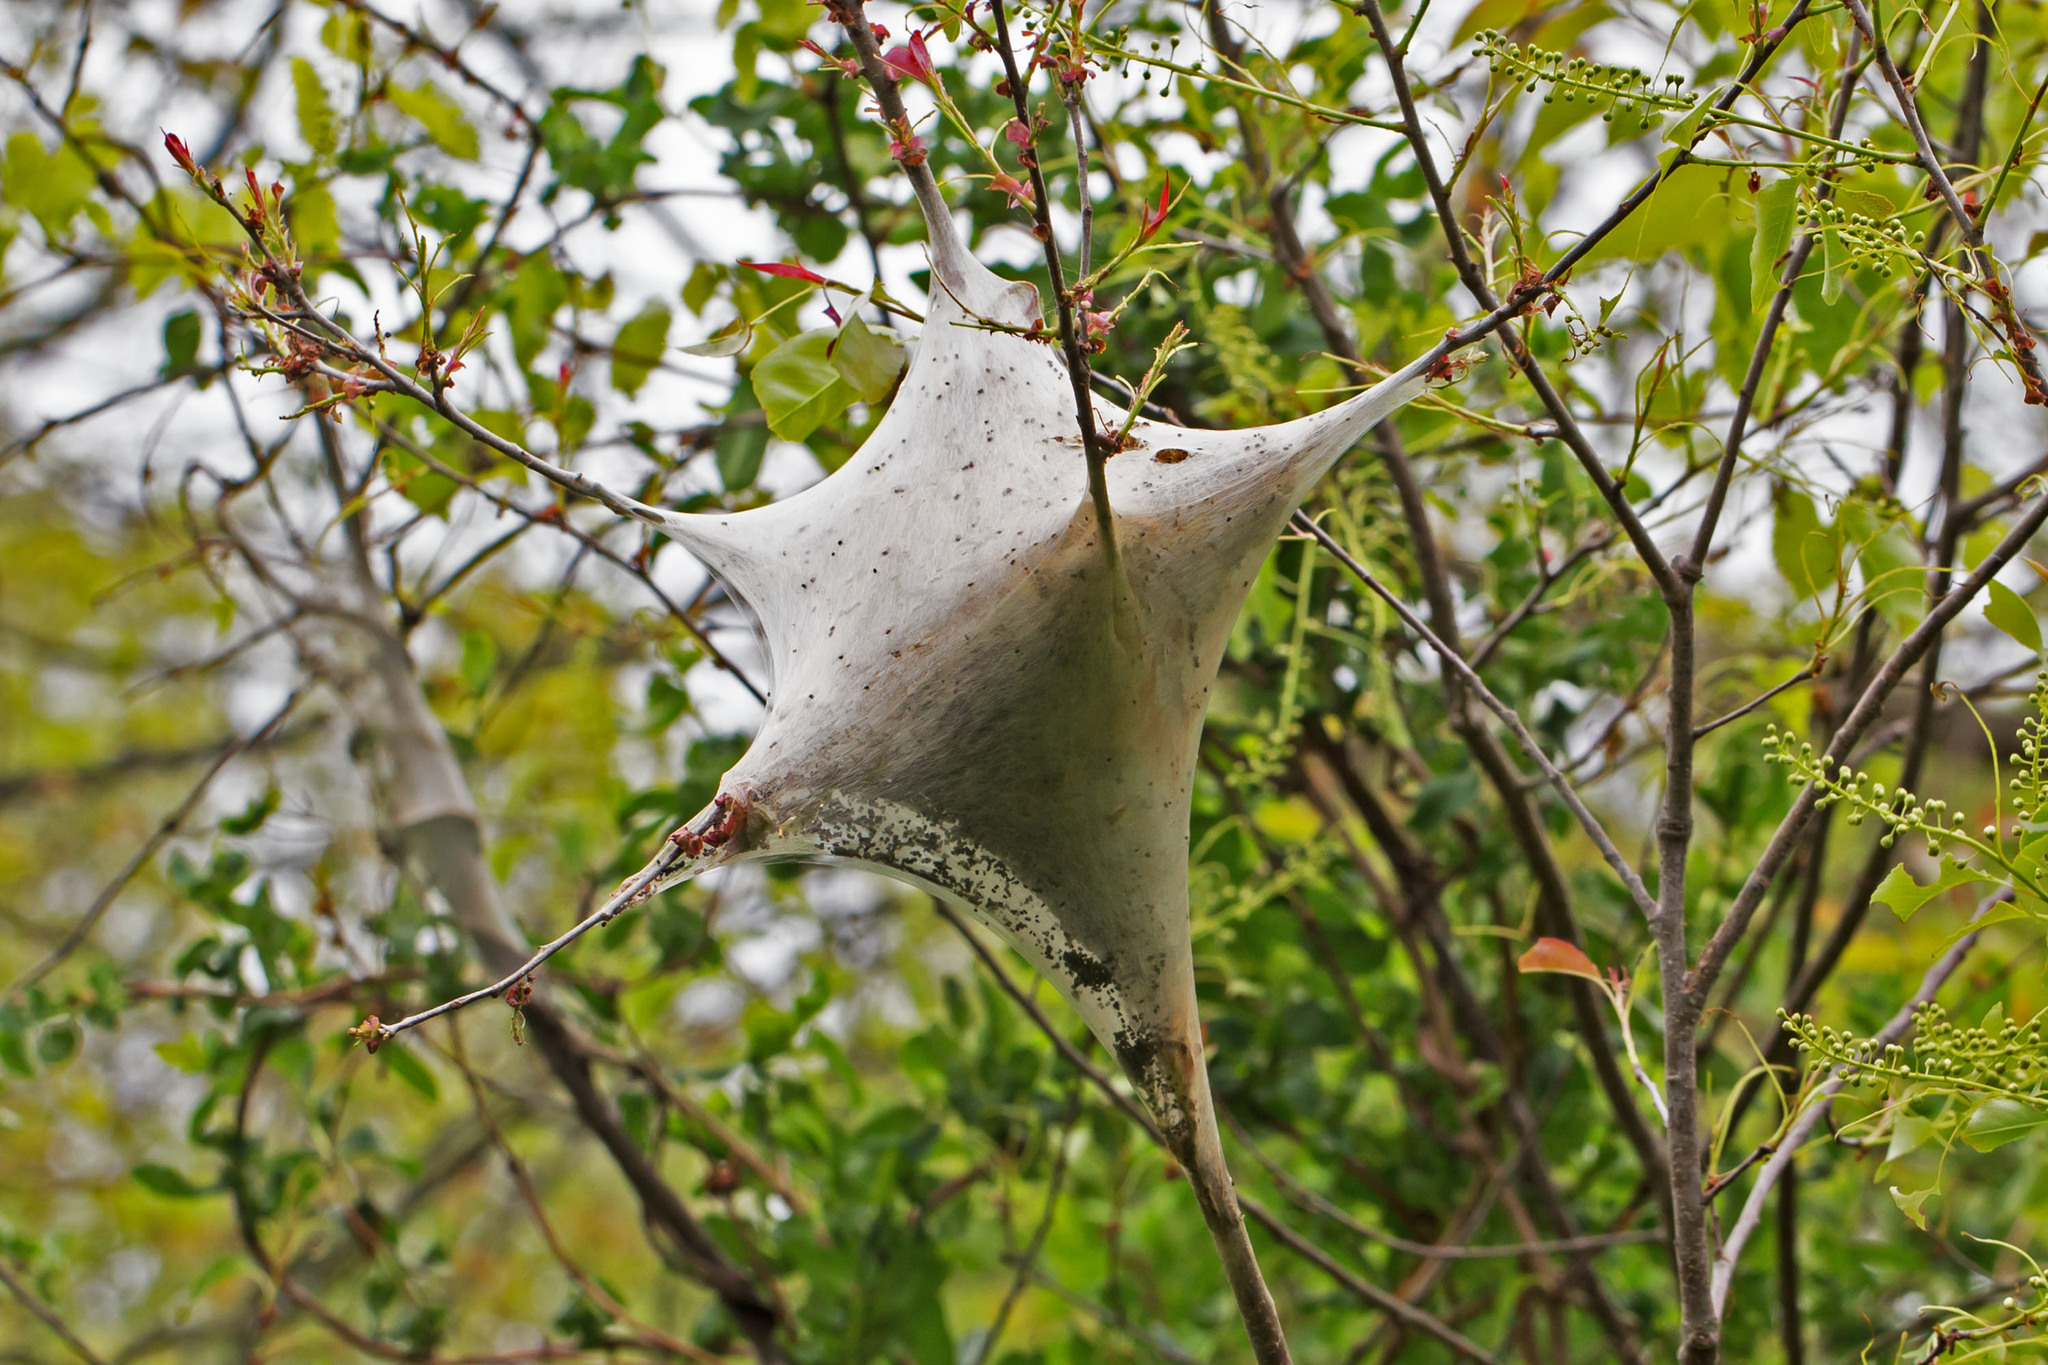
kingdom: Animalia
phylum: Arthropoda
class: Insecta
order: Lepidoptera
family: Lasiocampidae
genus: Malacosoma
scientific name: Malacosoma americana
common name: Eastern tent caterpillar moth
